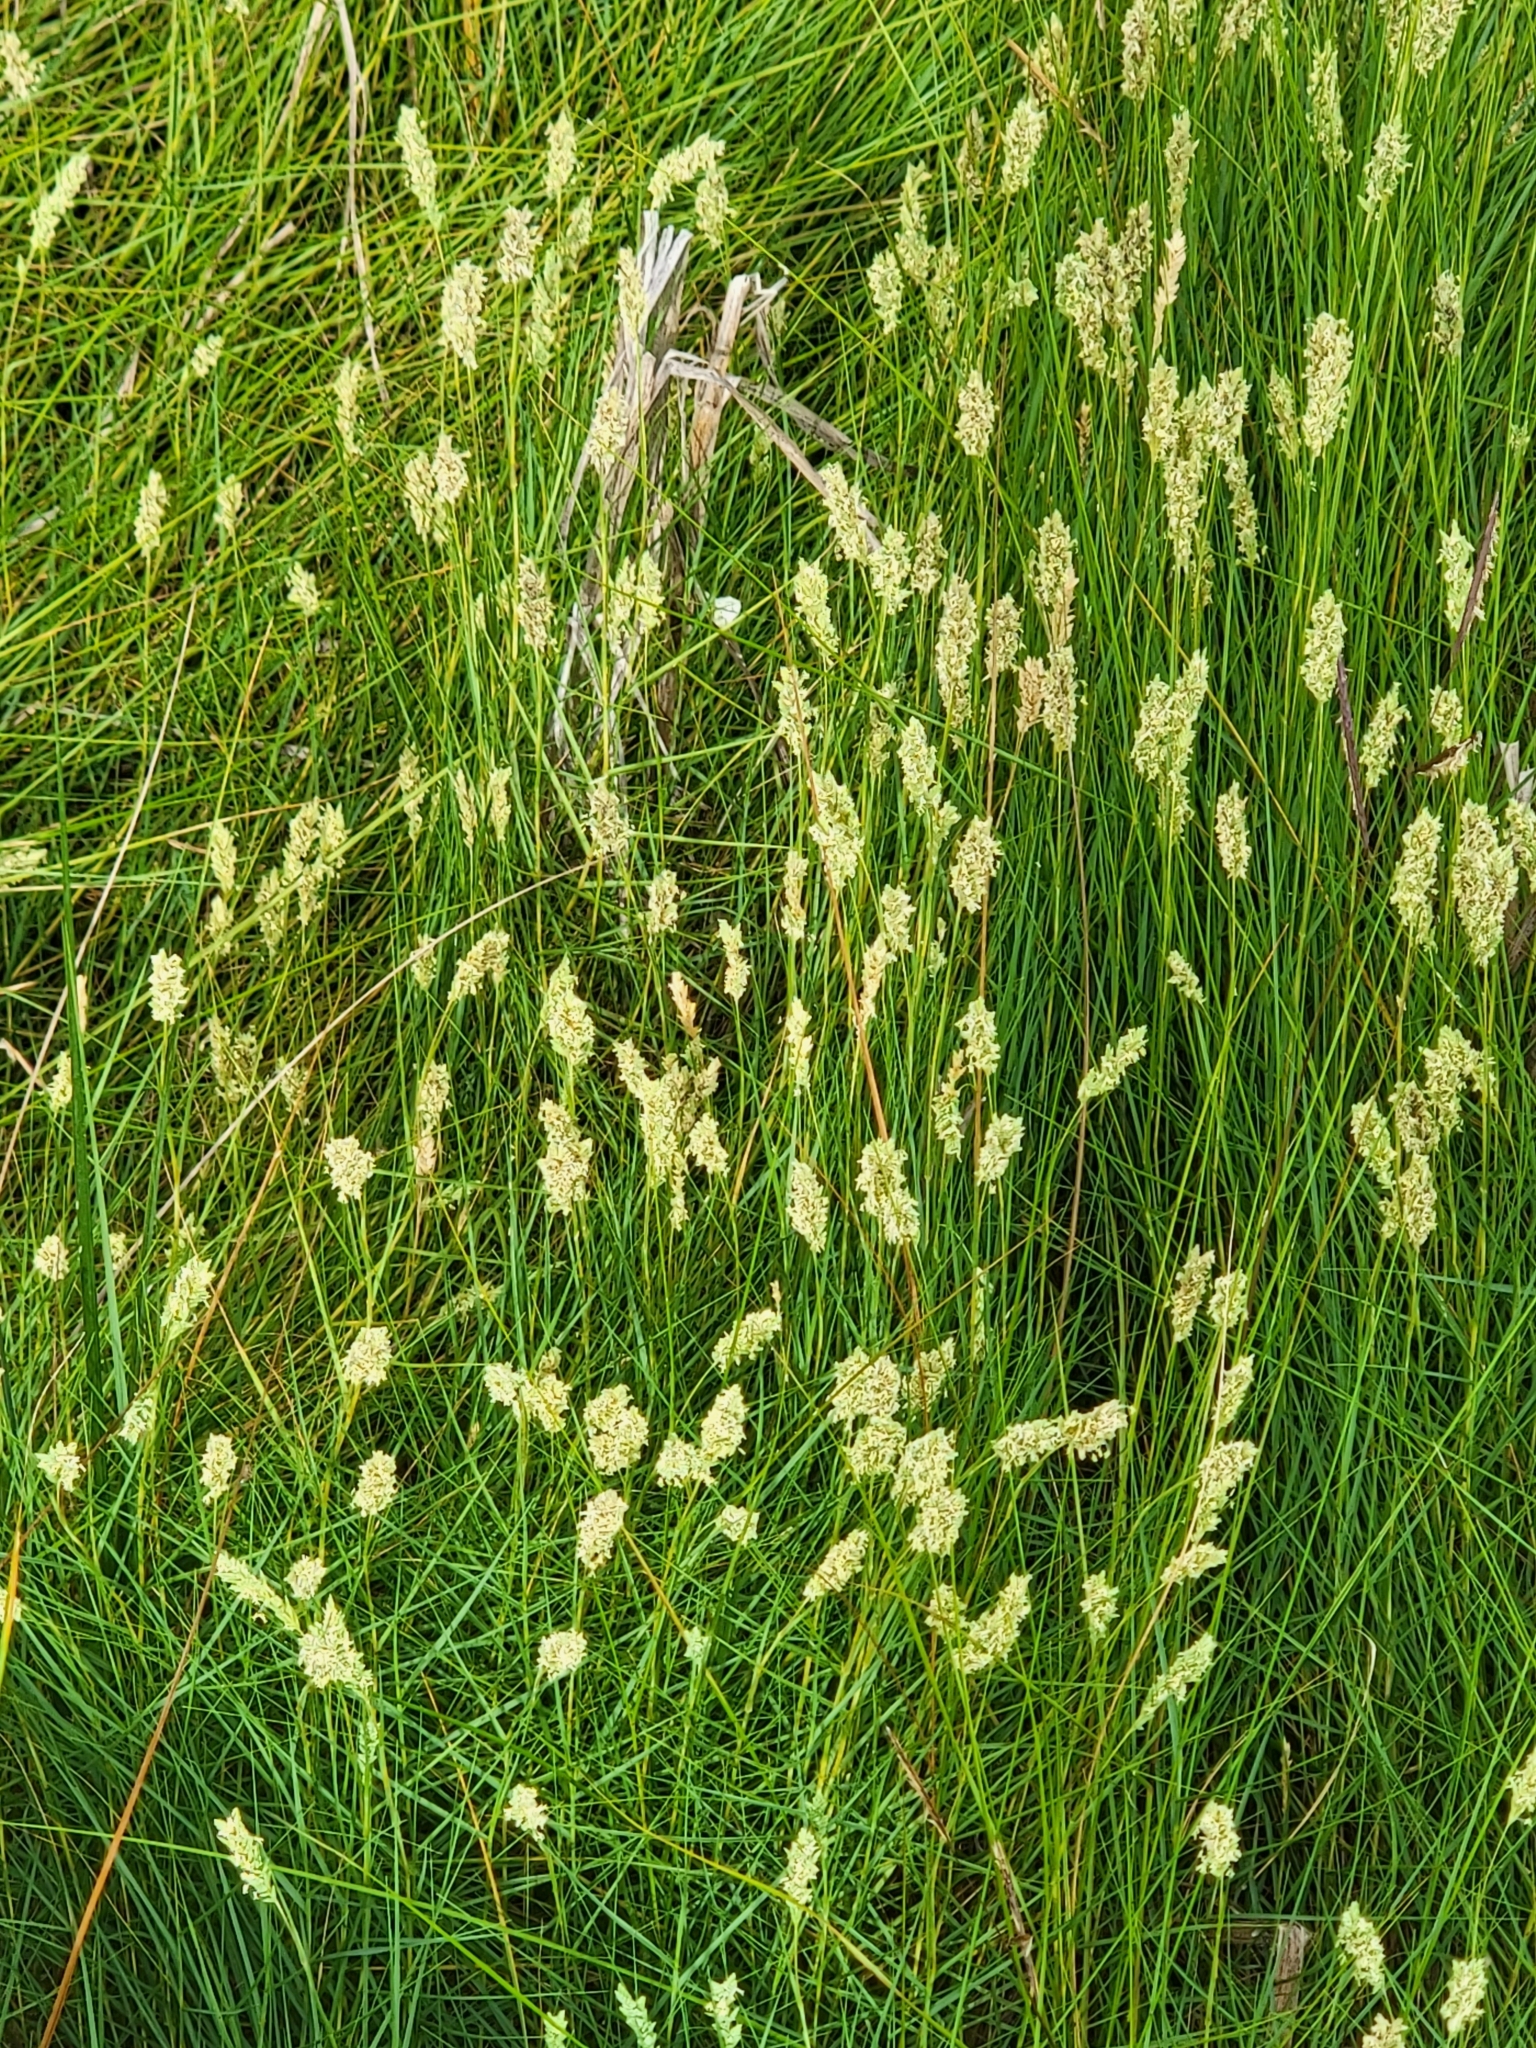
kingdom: Plantae
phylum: Tracheophyta
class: Liliopsida
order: Poales
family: Poaceae
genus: Distichlis
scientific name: Distichlis spicata
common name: Saltgrass
